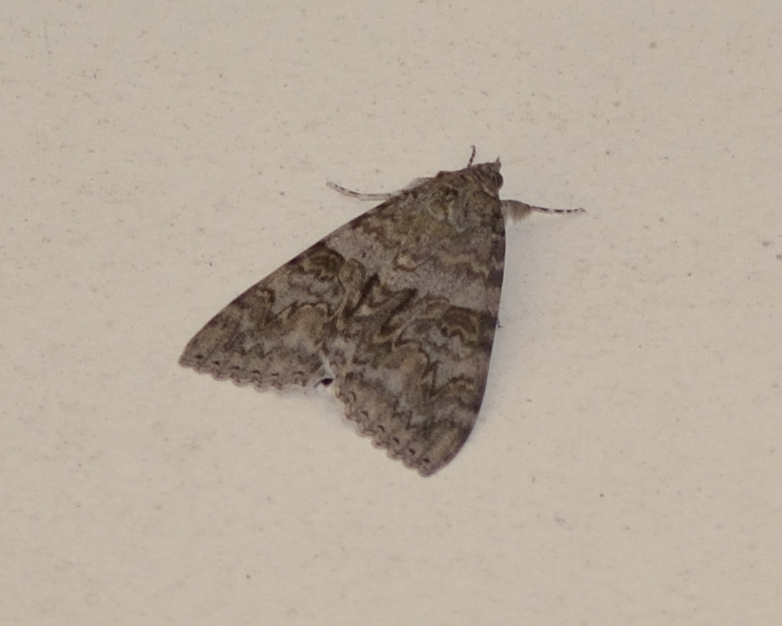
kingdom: Animalia
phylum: Arthropoda
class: Insecta
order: Lepidoptera
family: Erebidae
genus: Catocala
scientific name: Catocala nupta
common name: Red underwing
